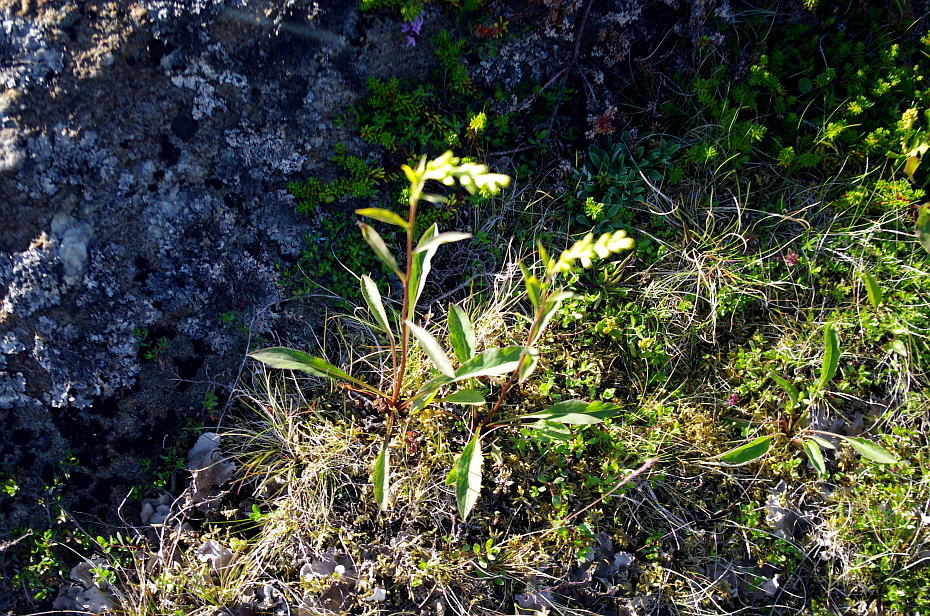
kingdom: Plantae
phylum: Tracheophyta
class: Magnoliopsida
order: Asterales
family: Asteraceae
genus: Solidago
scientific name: Solidago virgaurea
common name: Goldenrod
